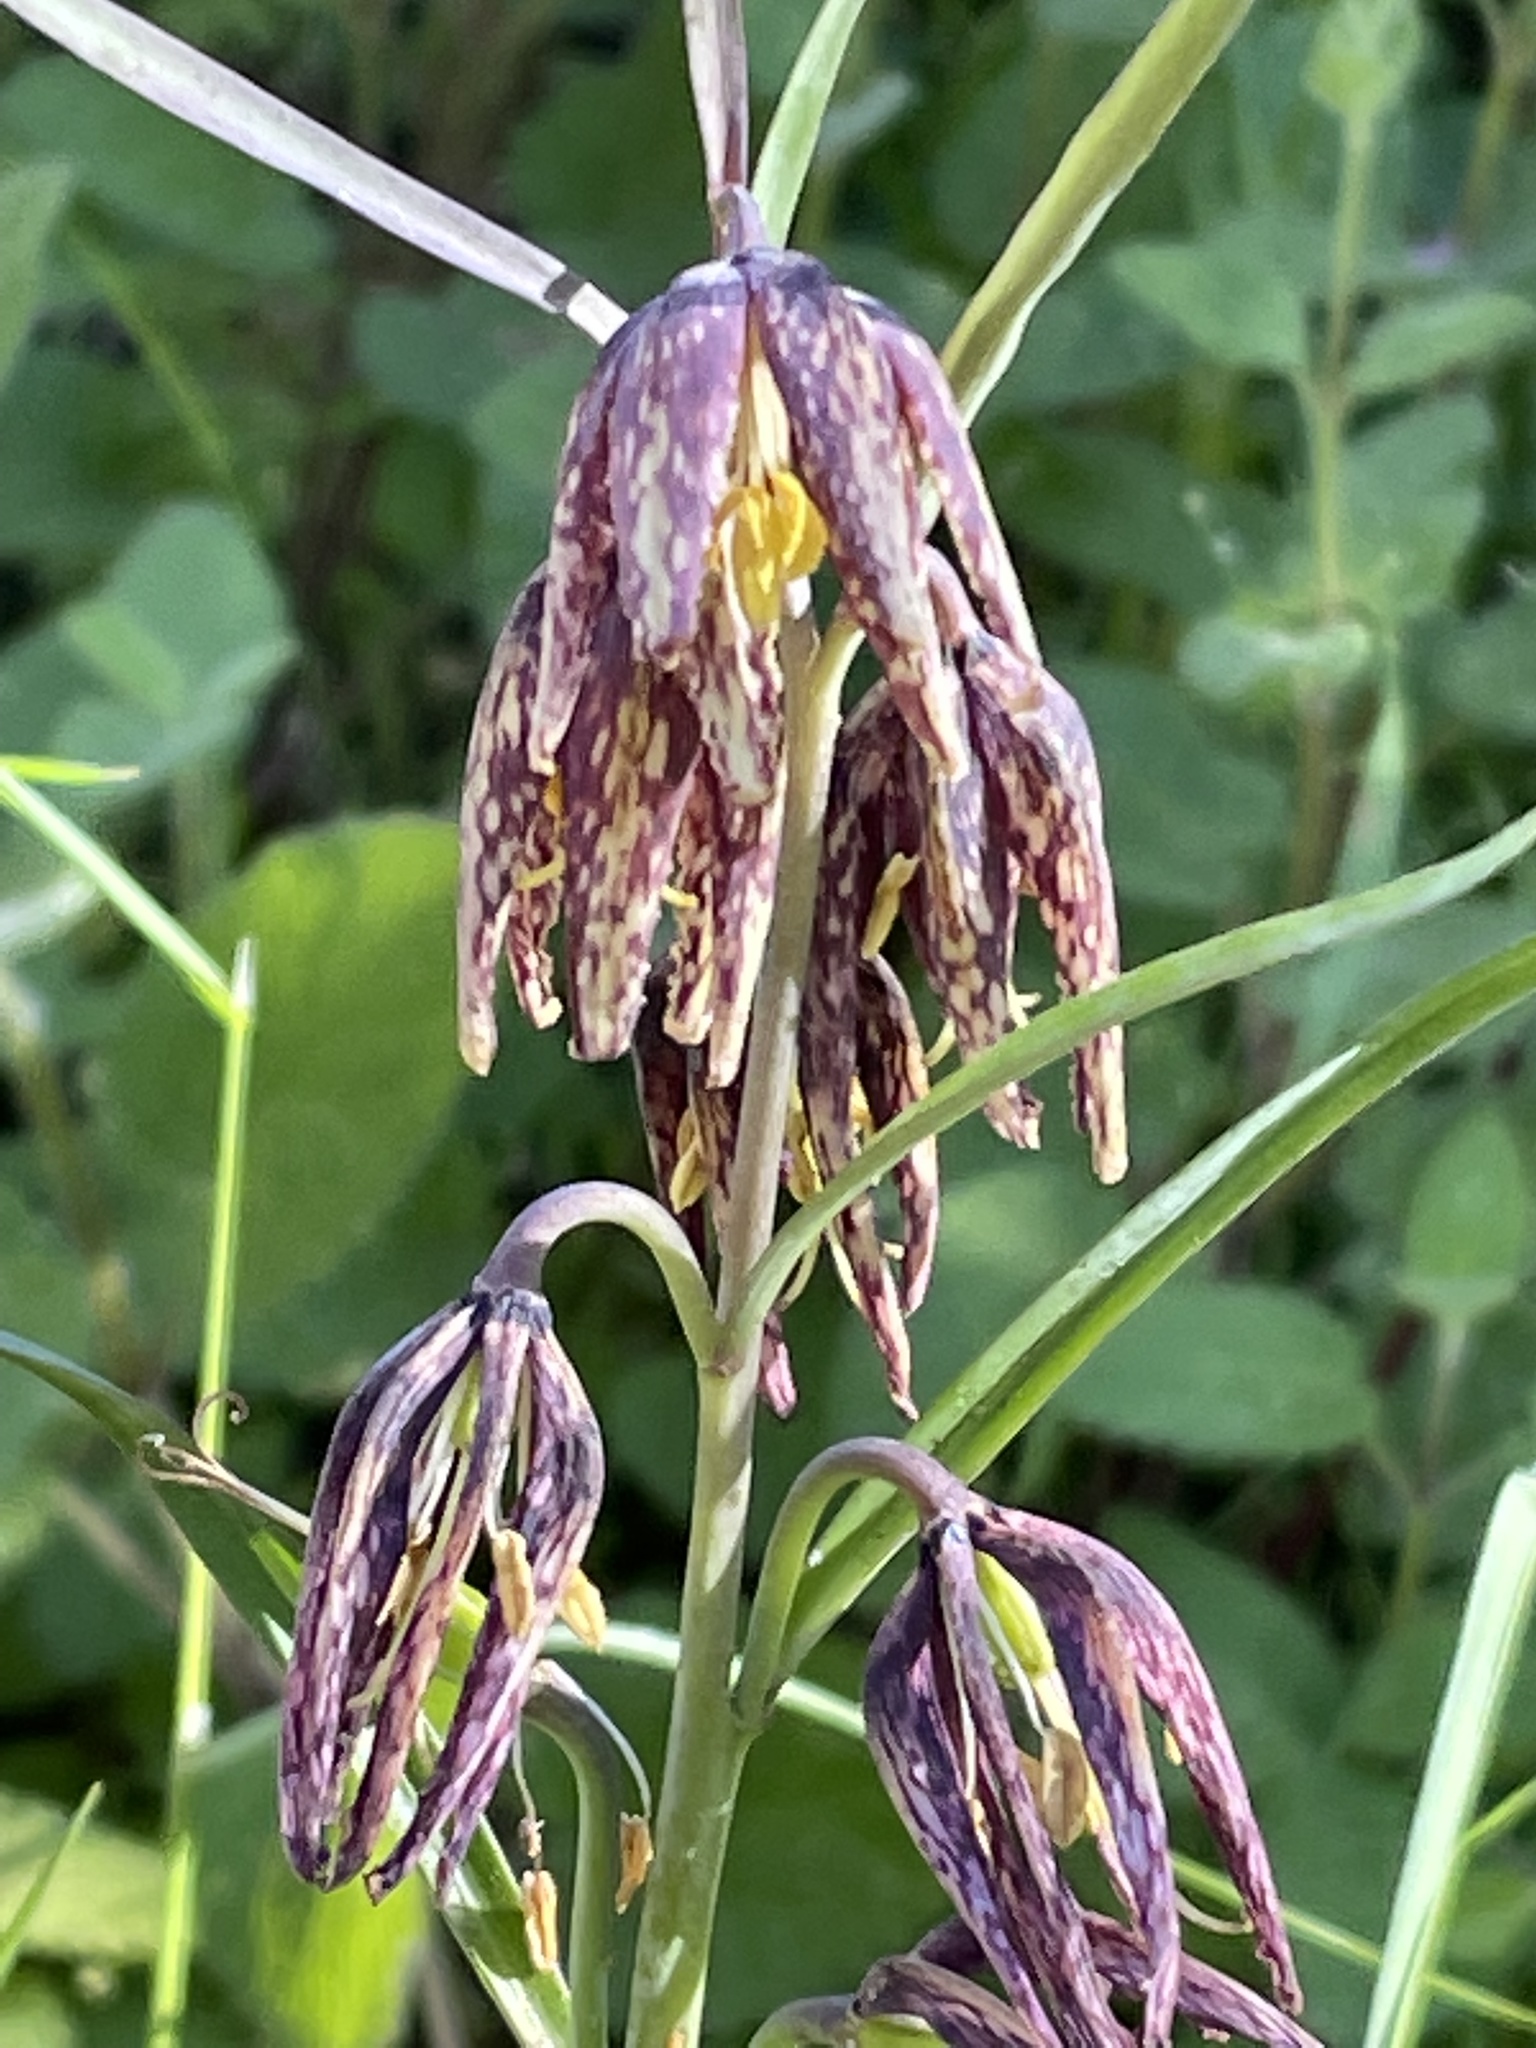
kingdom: Plantae
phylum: Tracheophyta
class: Liliopsida
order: Liliales
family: Liliaceae
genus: Fritillaria
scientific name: Fritillaria affinis
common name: Ojai fritillary
